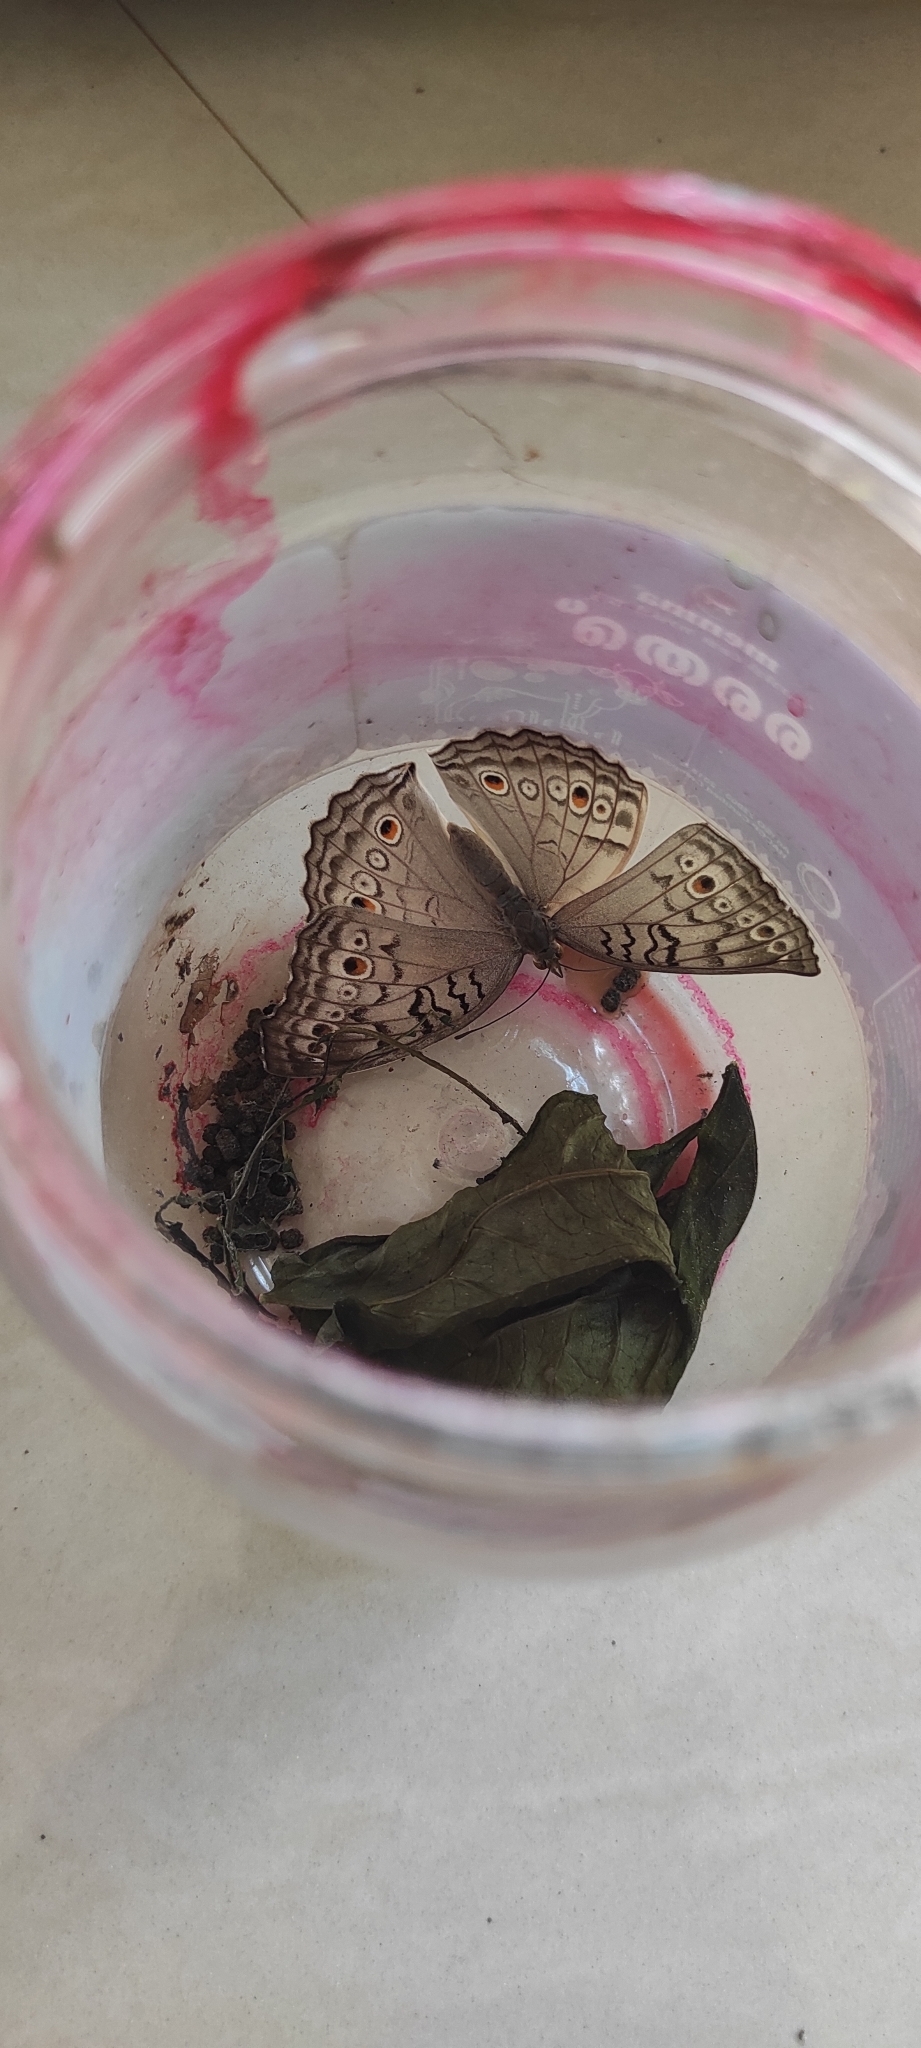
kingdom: Animalia
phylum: Arthropoda
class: Insecta
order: Lepidoptera
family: Nymphalidae
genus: Junonia
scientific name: Junonia atlites
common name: Grey pansy
